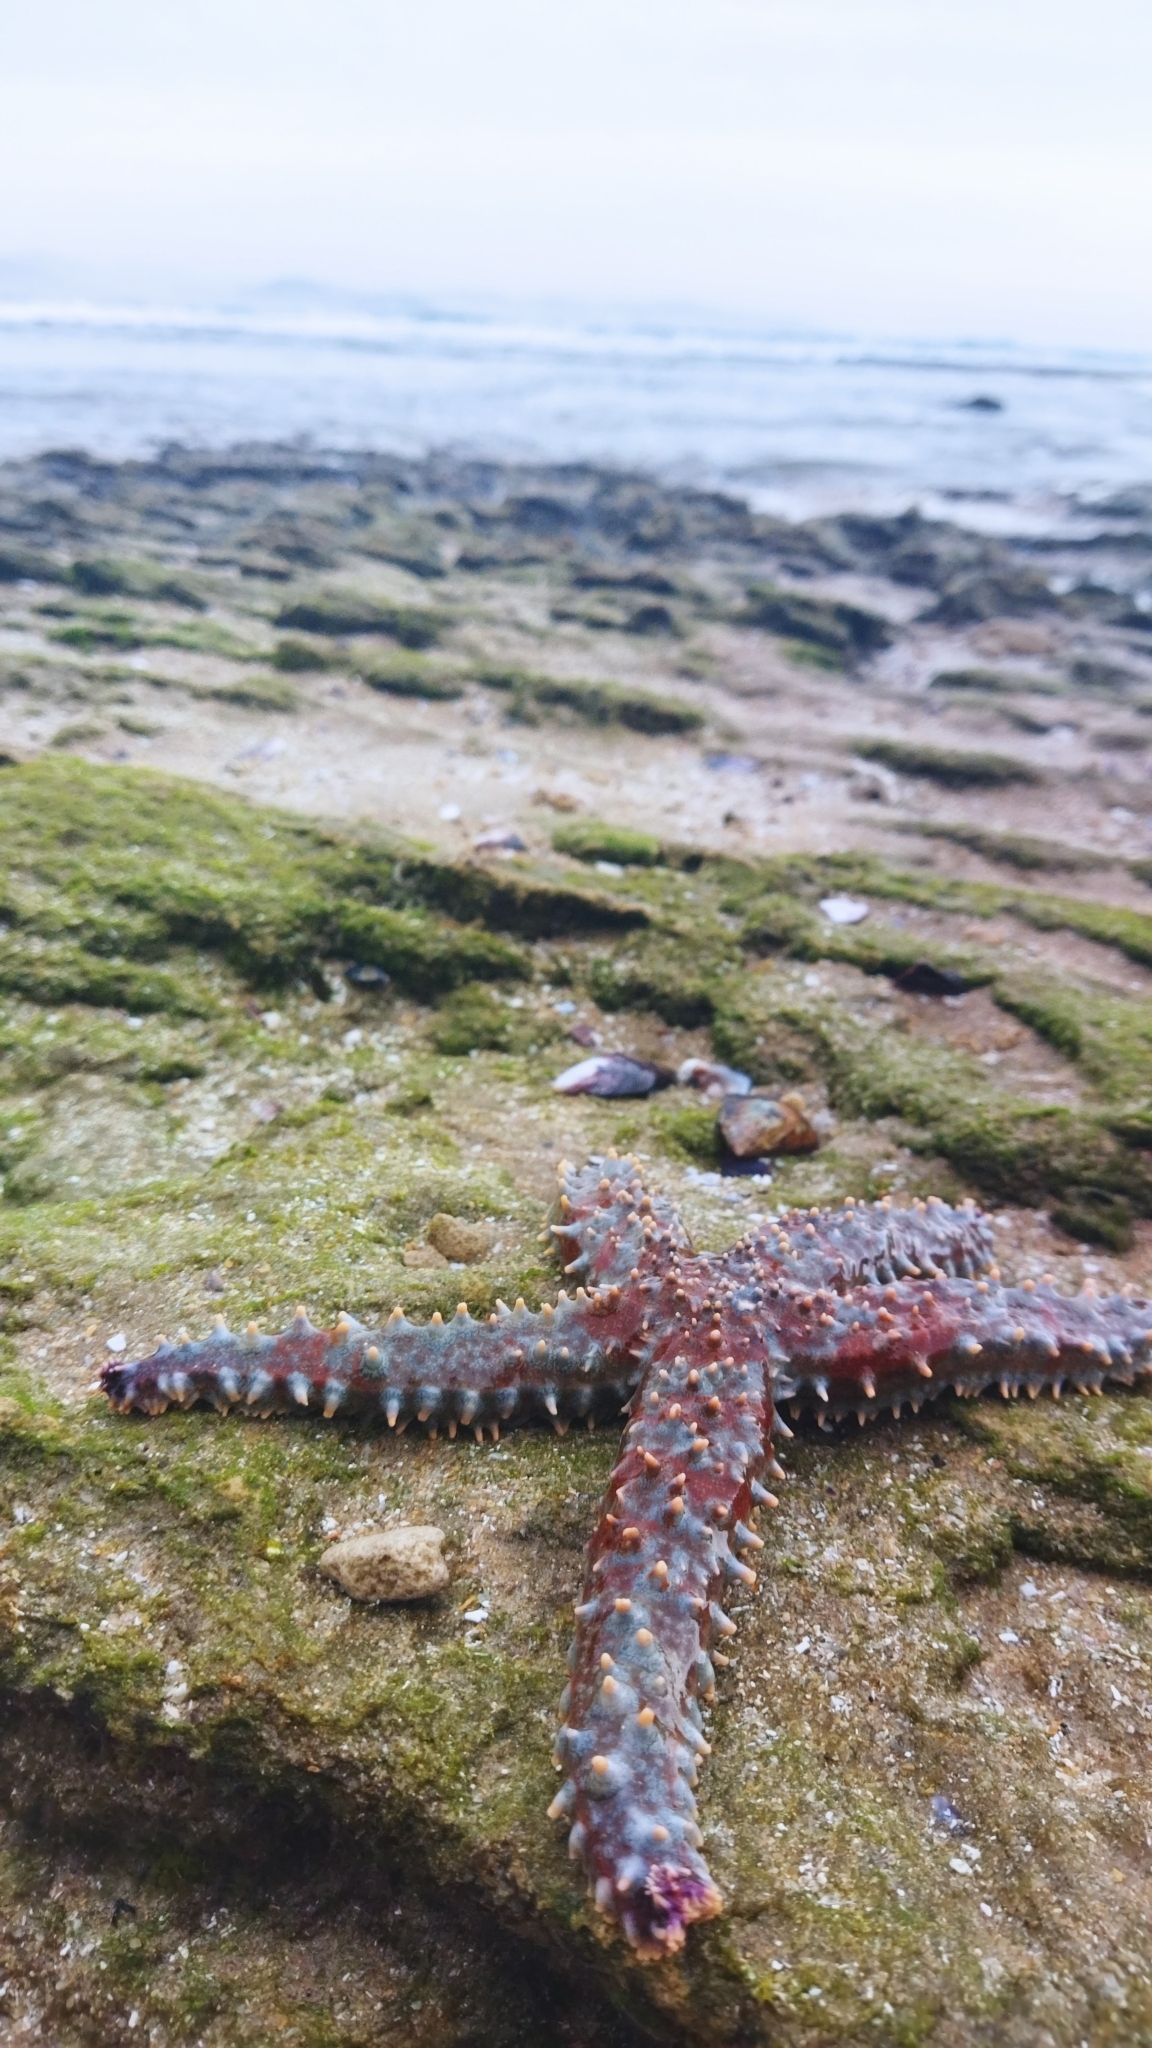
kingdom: Animalia
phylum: Echinodermata
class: Asteroidea
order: Forcipulatida
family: Asteriidae
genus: Marthasterias
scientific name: Marthasterias africana
